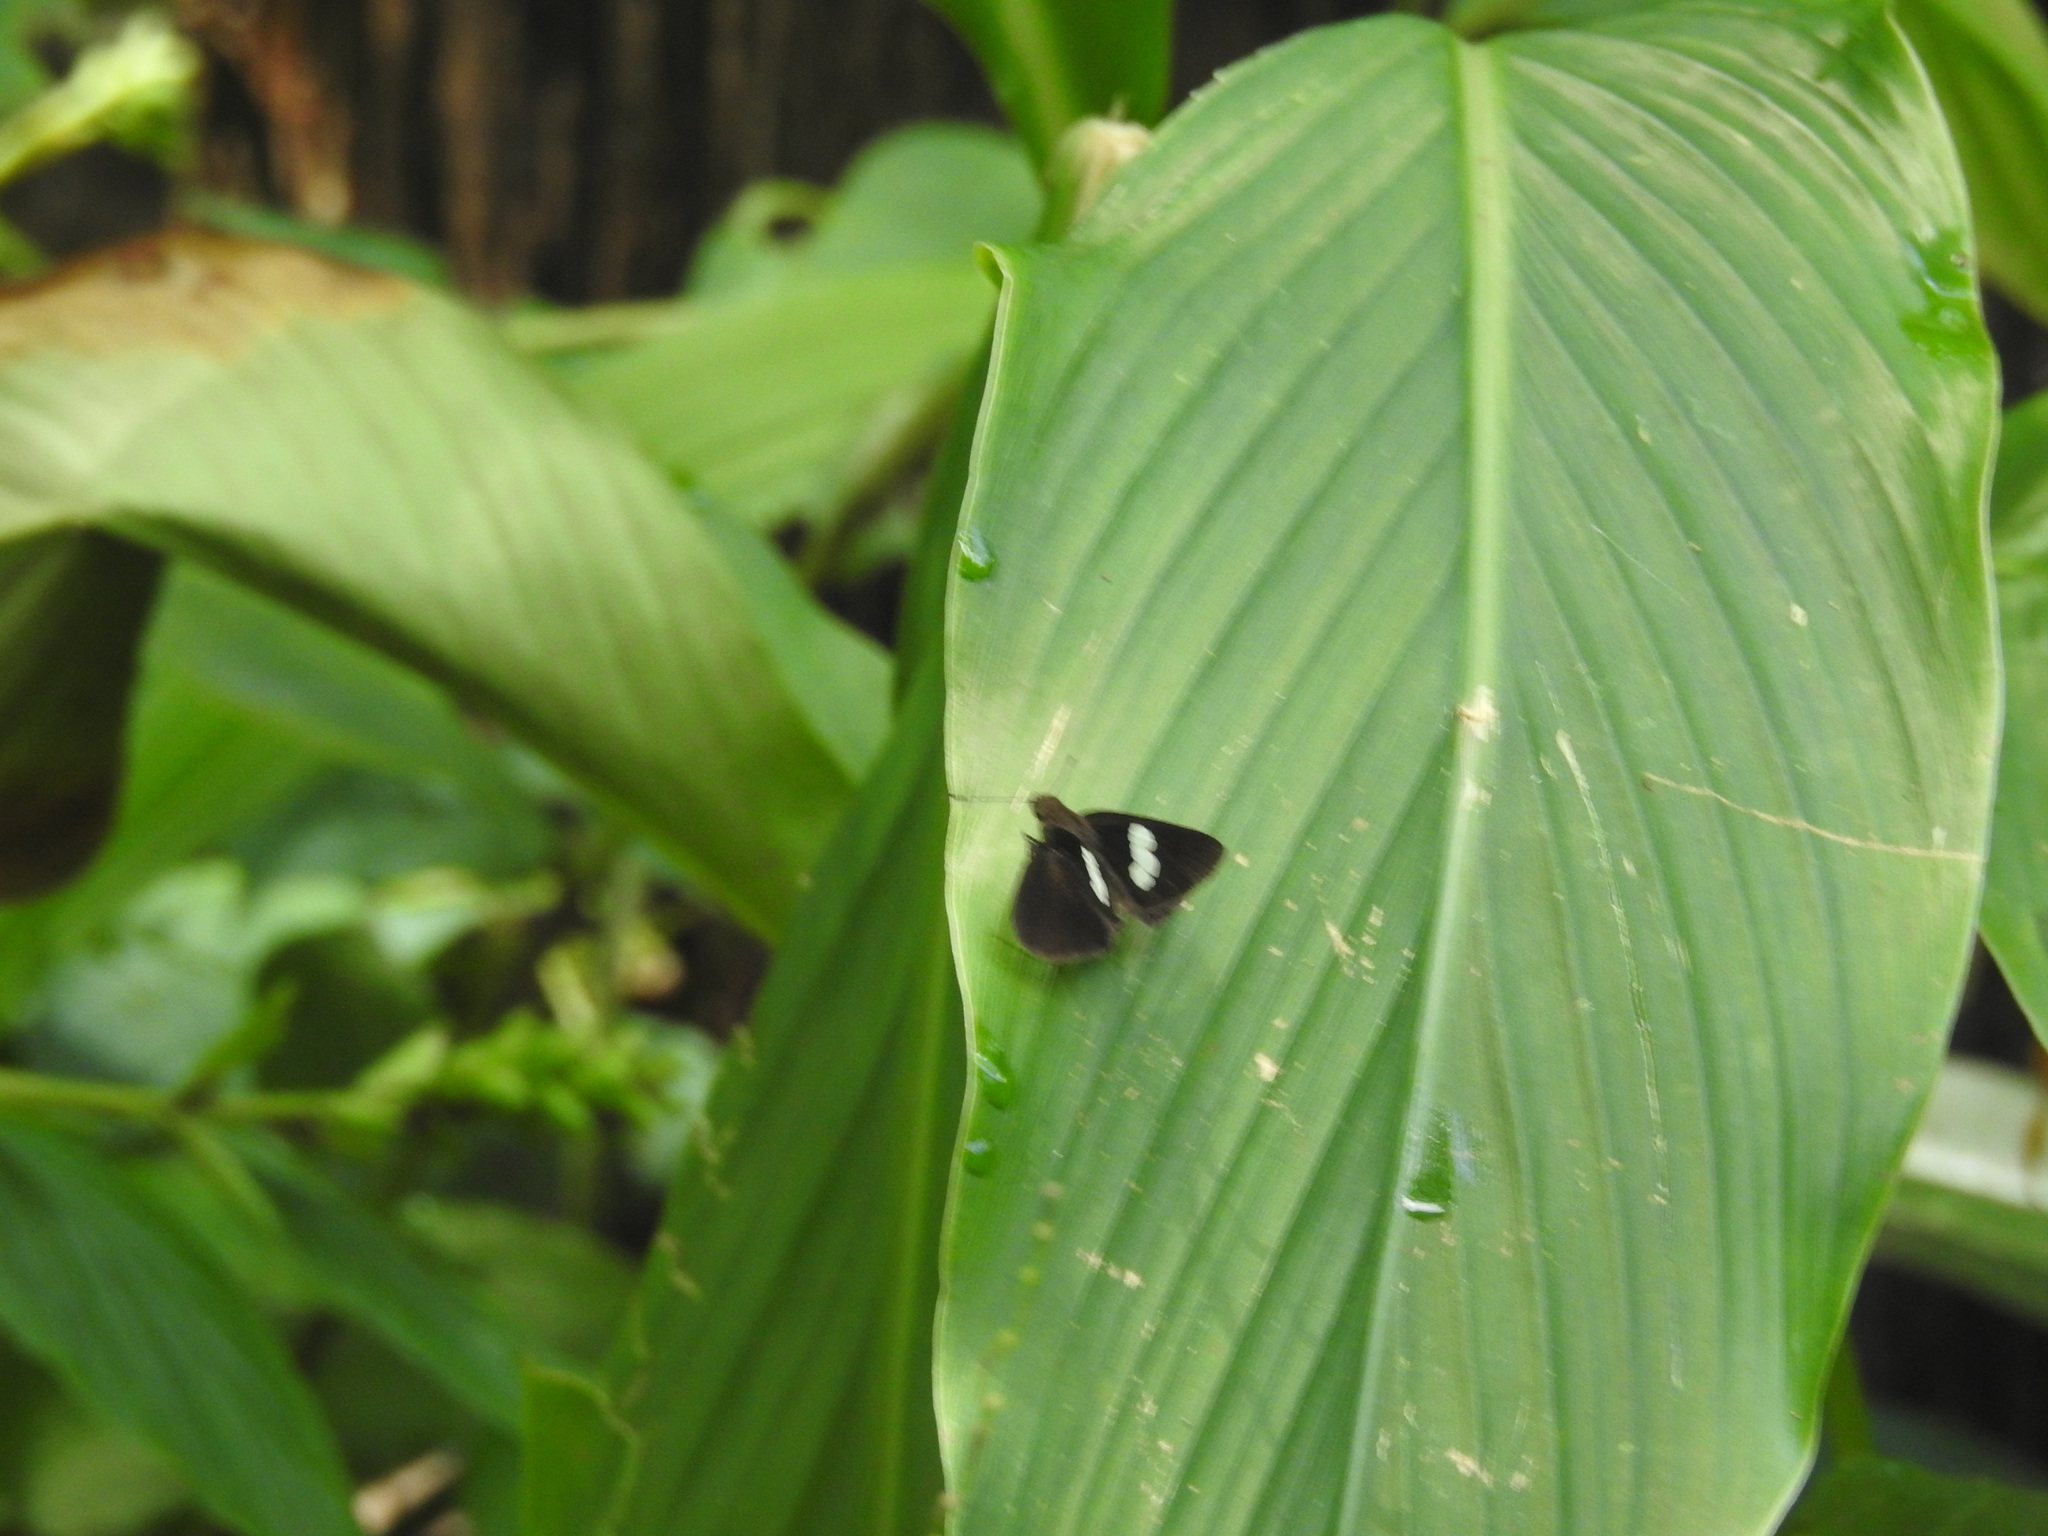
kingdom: Animalia
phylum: Arthropoda
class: Insecta
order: Lepidoptera
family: Hesperiidae
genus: Notocrypta
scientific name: Notocrypta curvifascia
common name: Restricted demon
